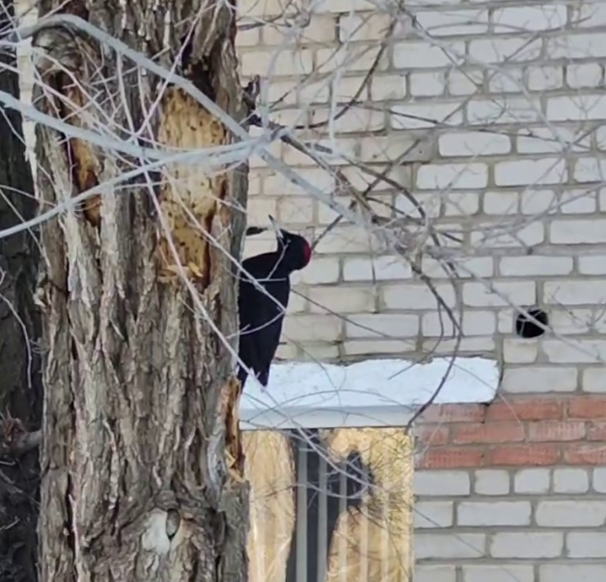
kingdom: Animalia
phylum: Chordata
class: Aves
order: Piciformes
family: Picidae
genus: Dryocopus
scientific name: Dryocopus martius
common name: Black woodpecker
